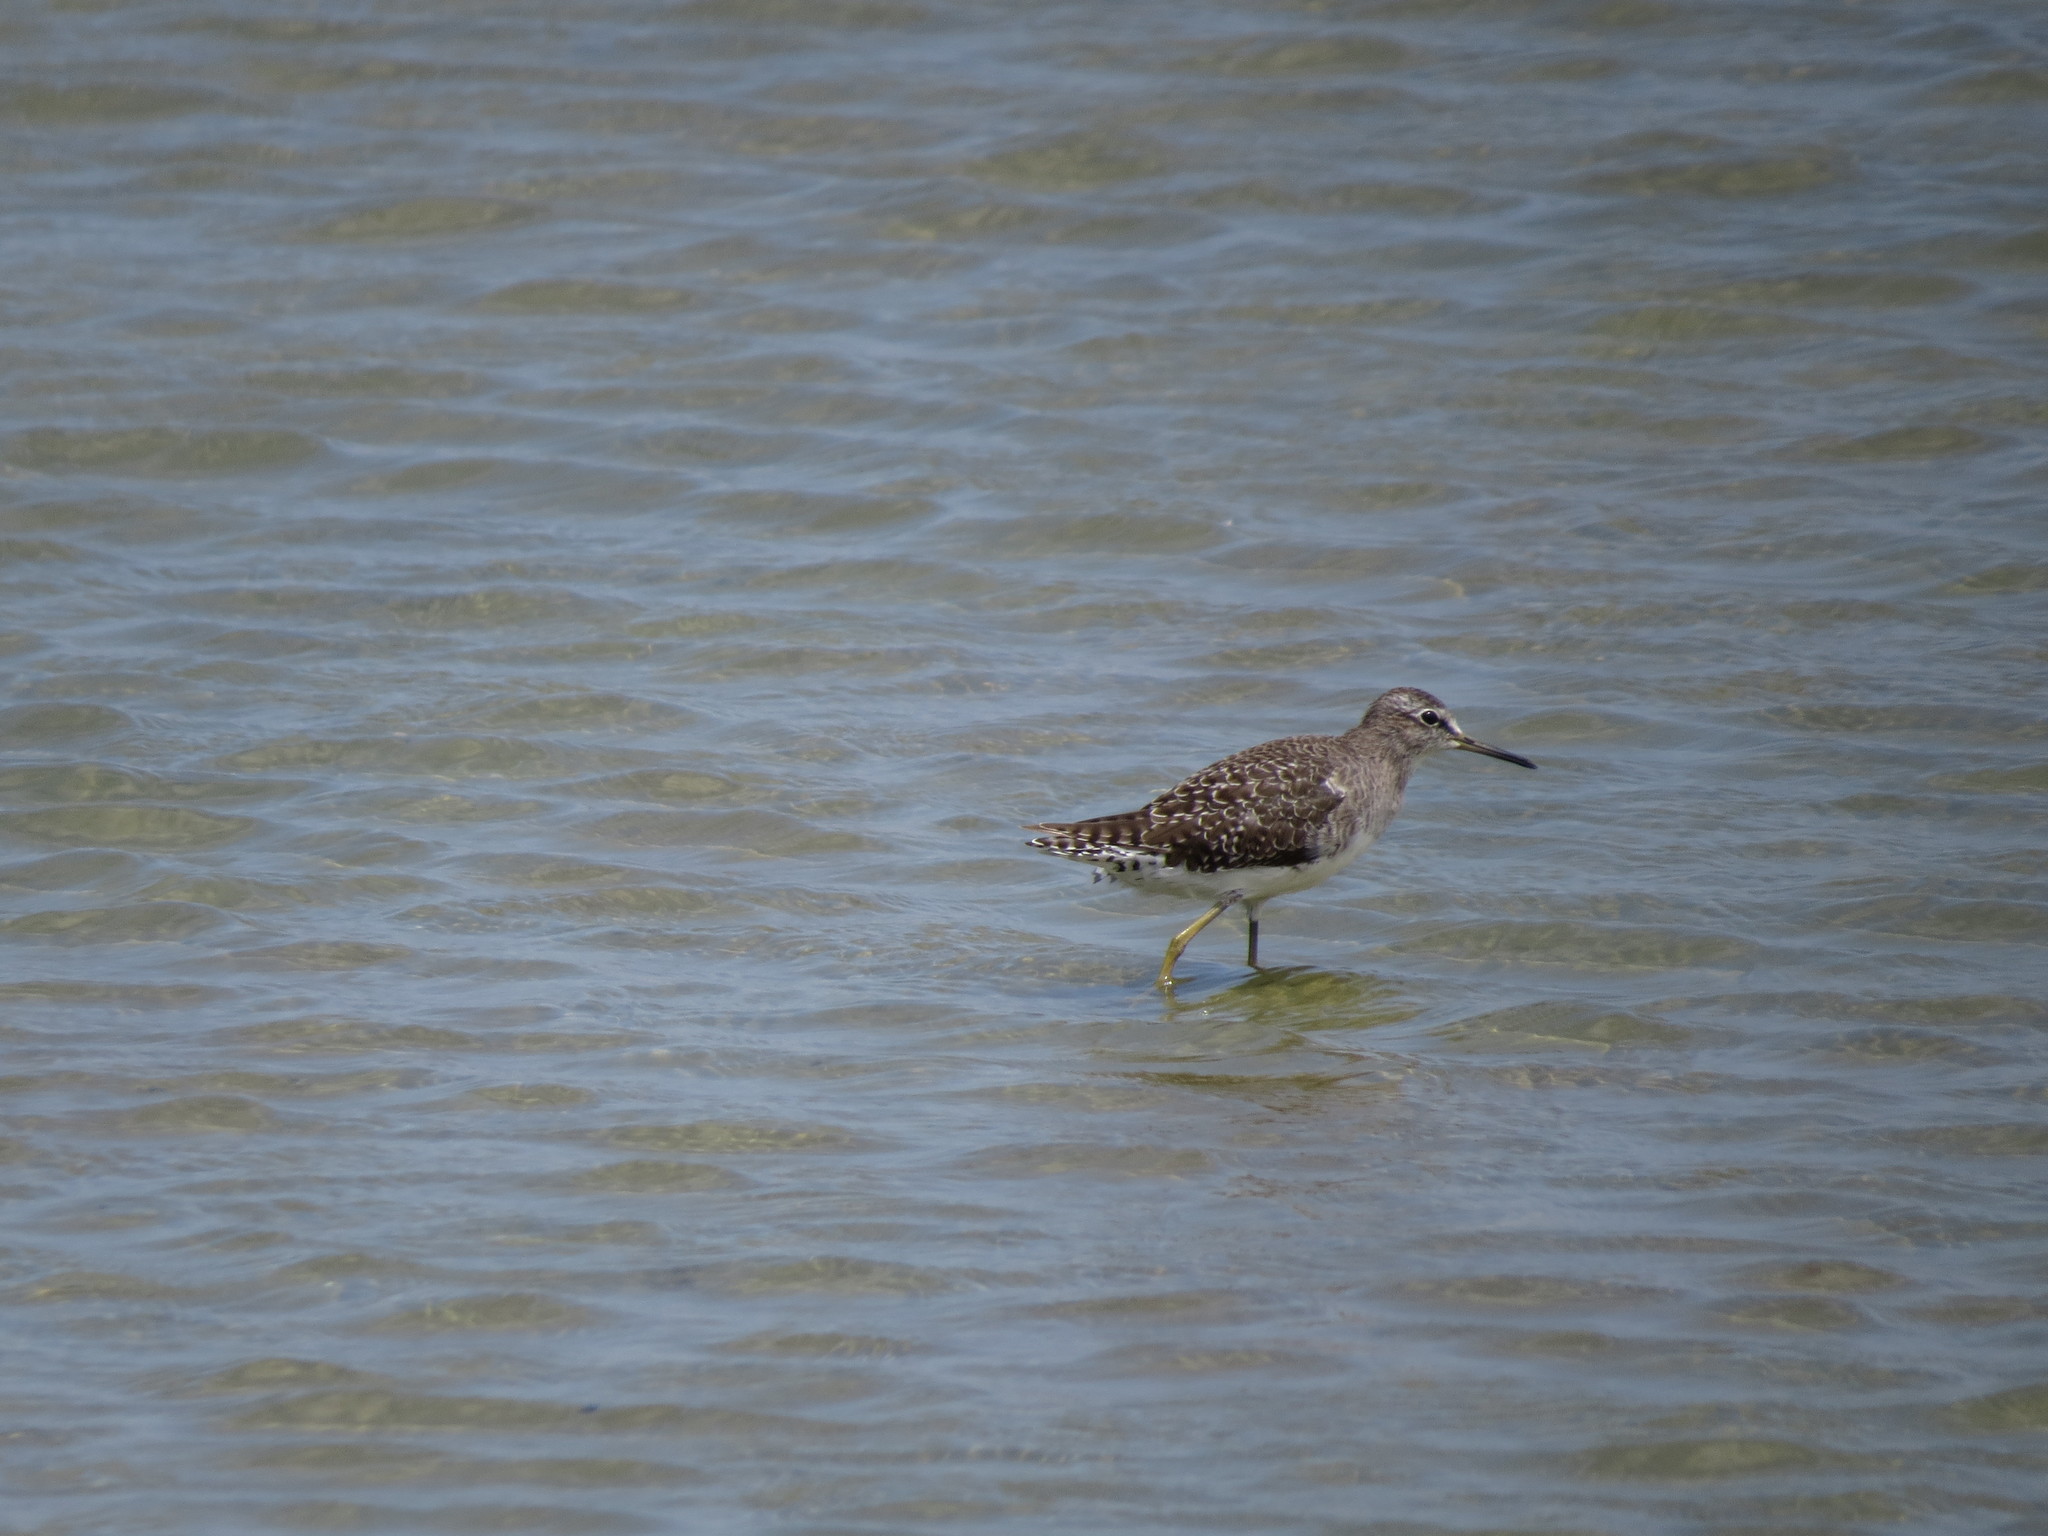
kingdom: Animalia
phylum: Chordata
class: Aves
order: Charadriiformes
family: Scolopacidae
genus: Tringa
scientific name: Tringa glareola
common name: Wood sandpiper
